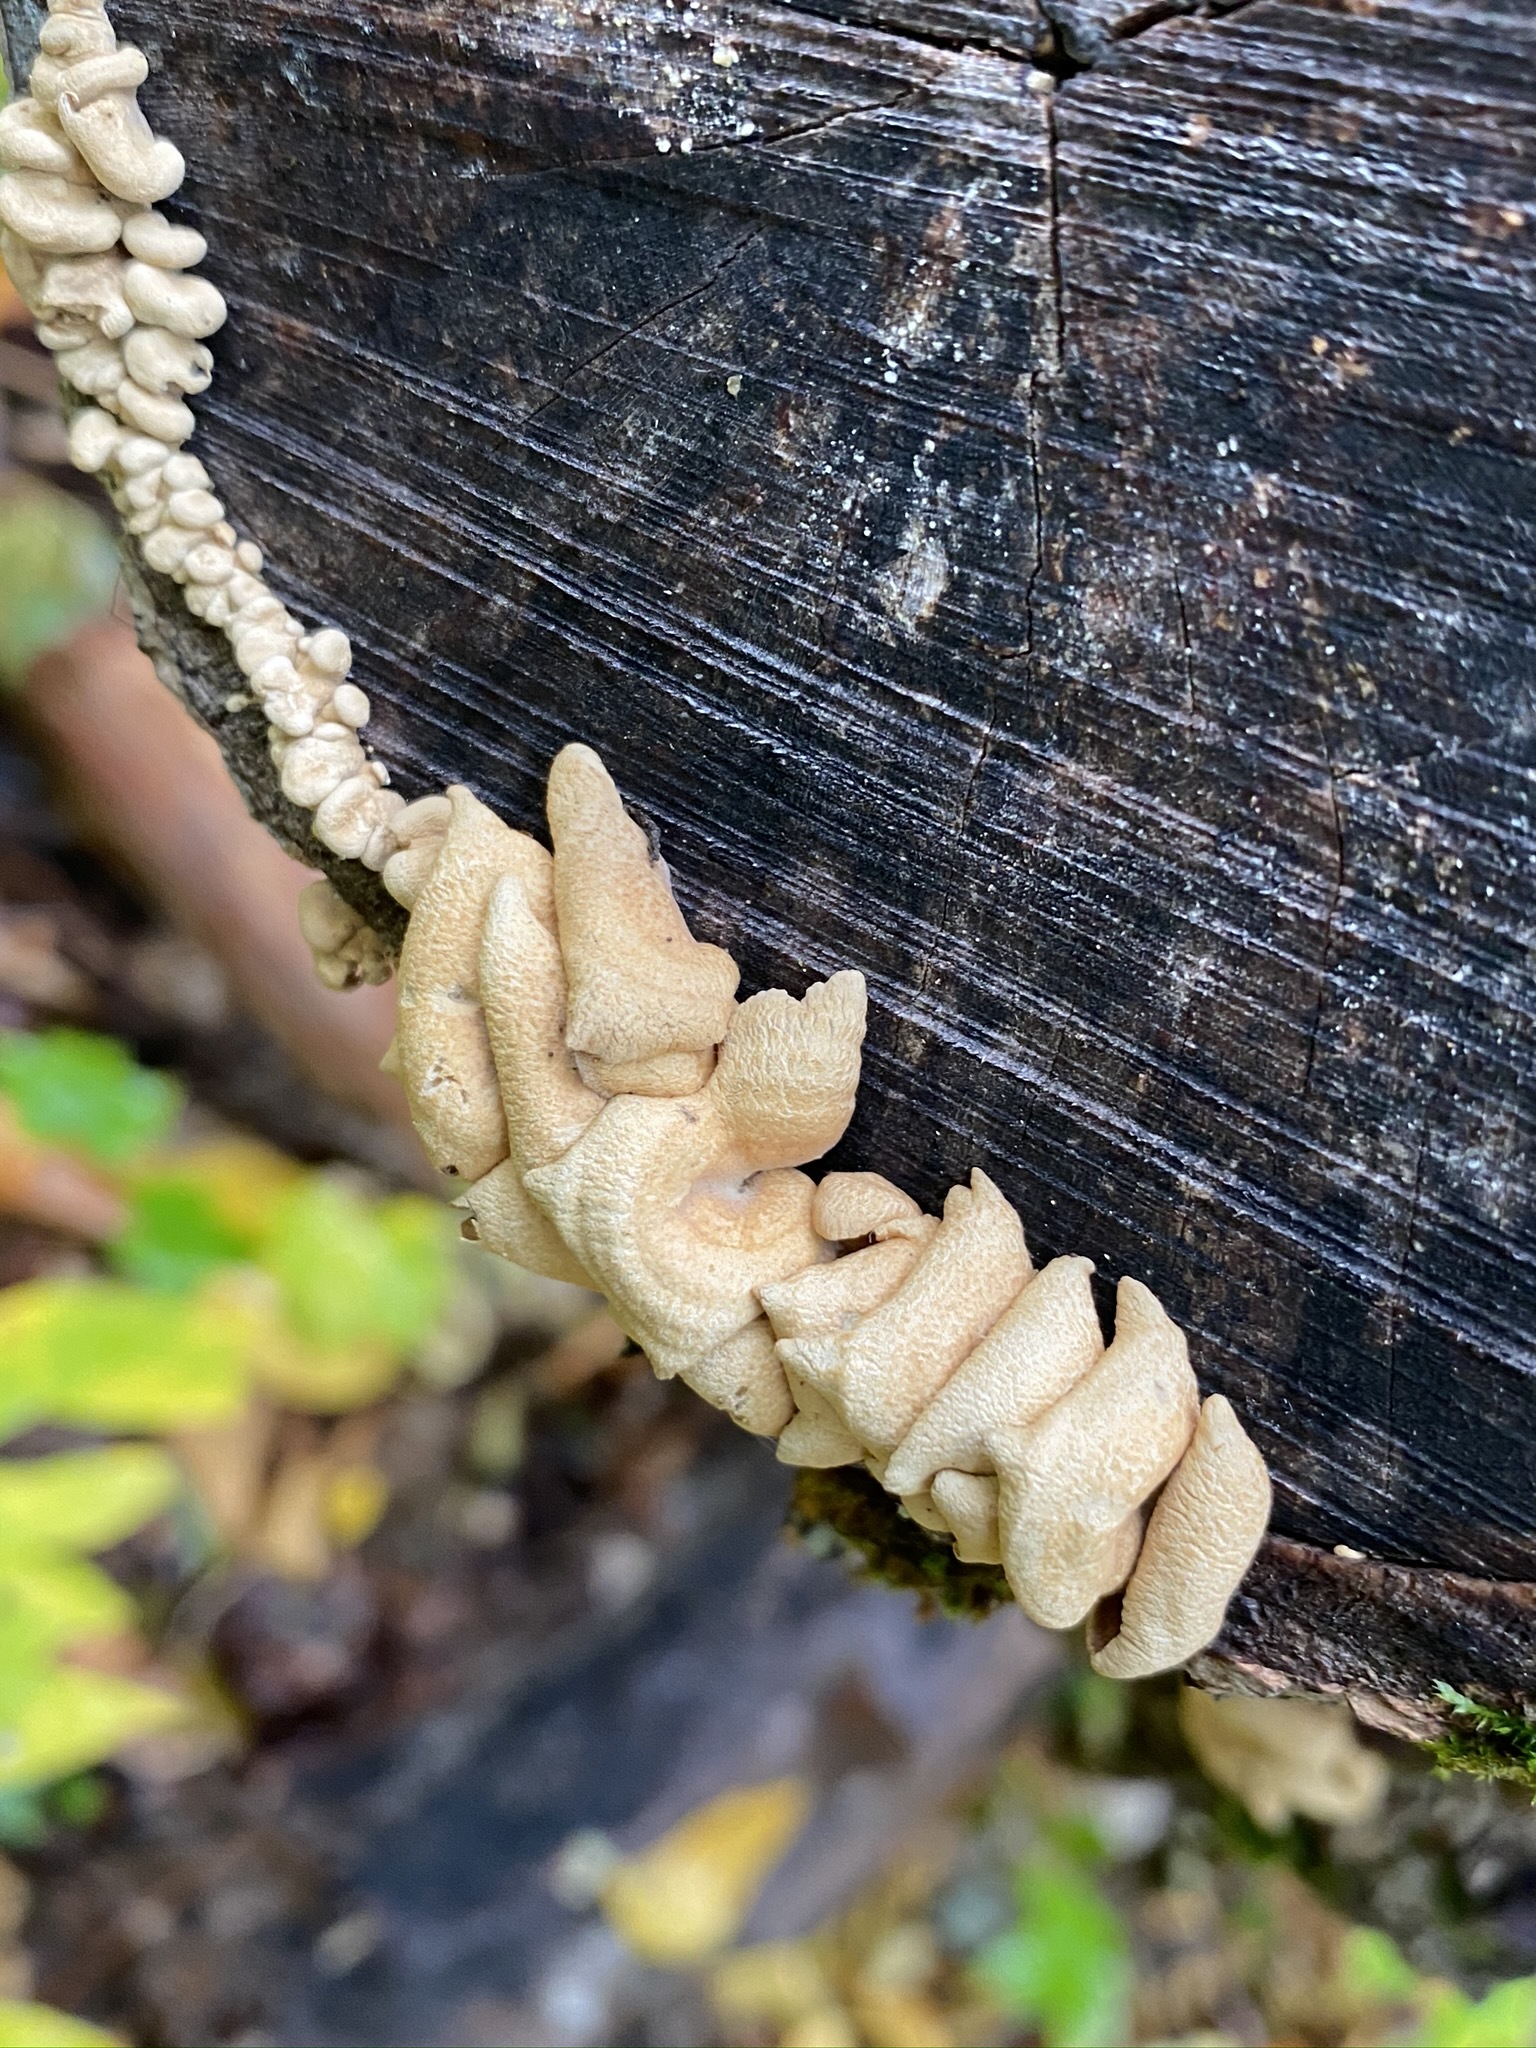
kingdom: Fungi
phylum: Basidiomycota
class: Agaricomycetes
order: Agaricales
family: Mycenaceae
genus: Panellus
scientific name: Panellus stipticus
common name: Bitter oysterling
